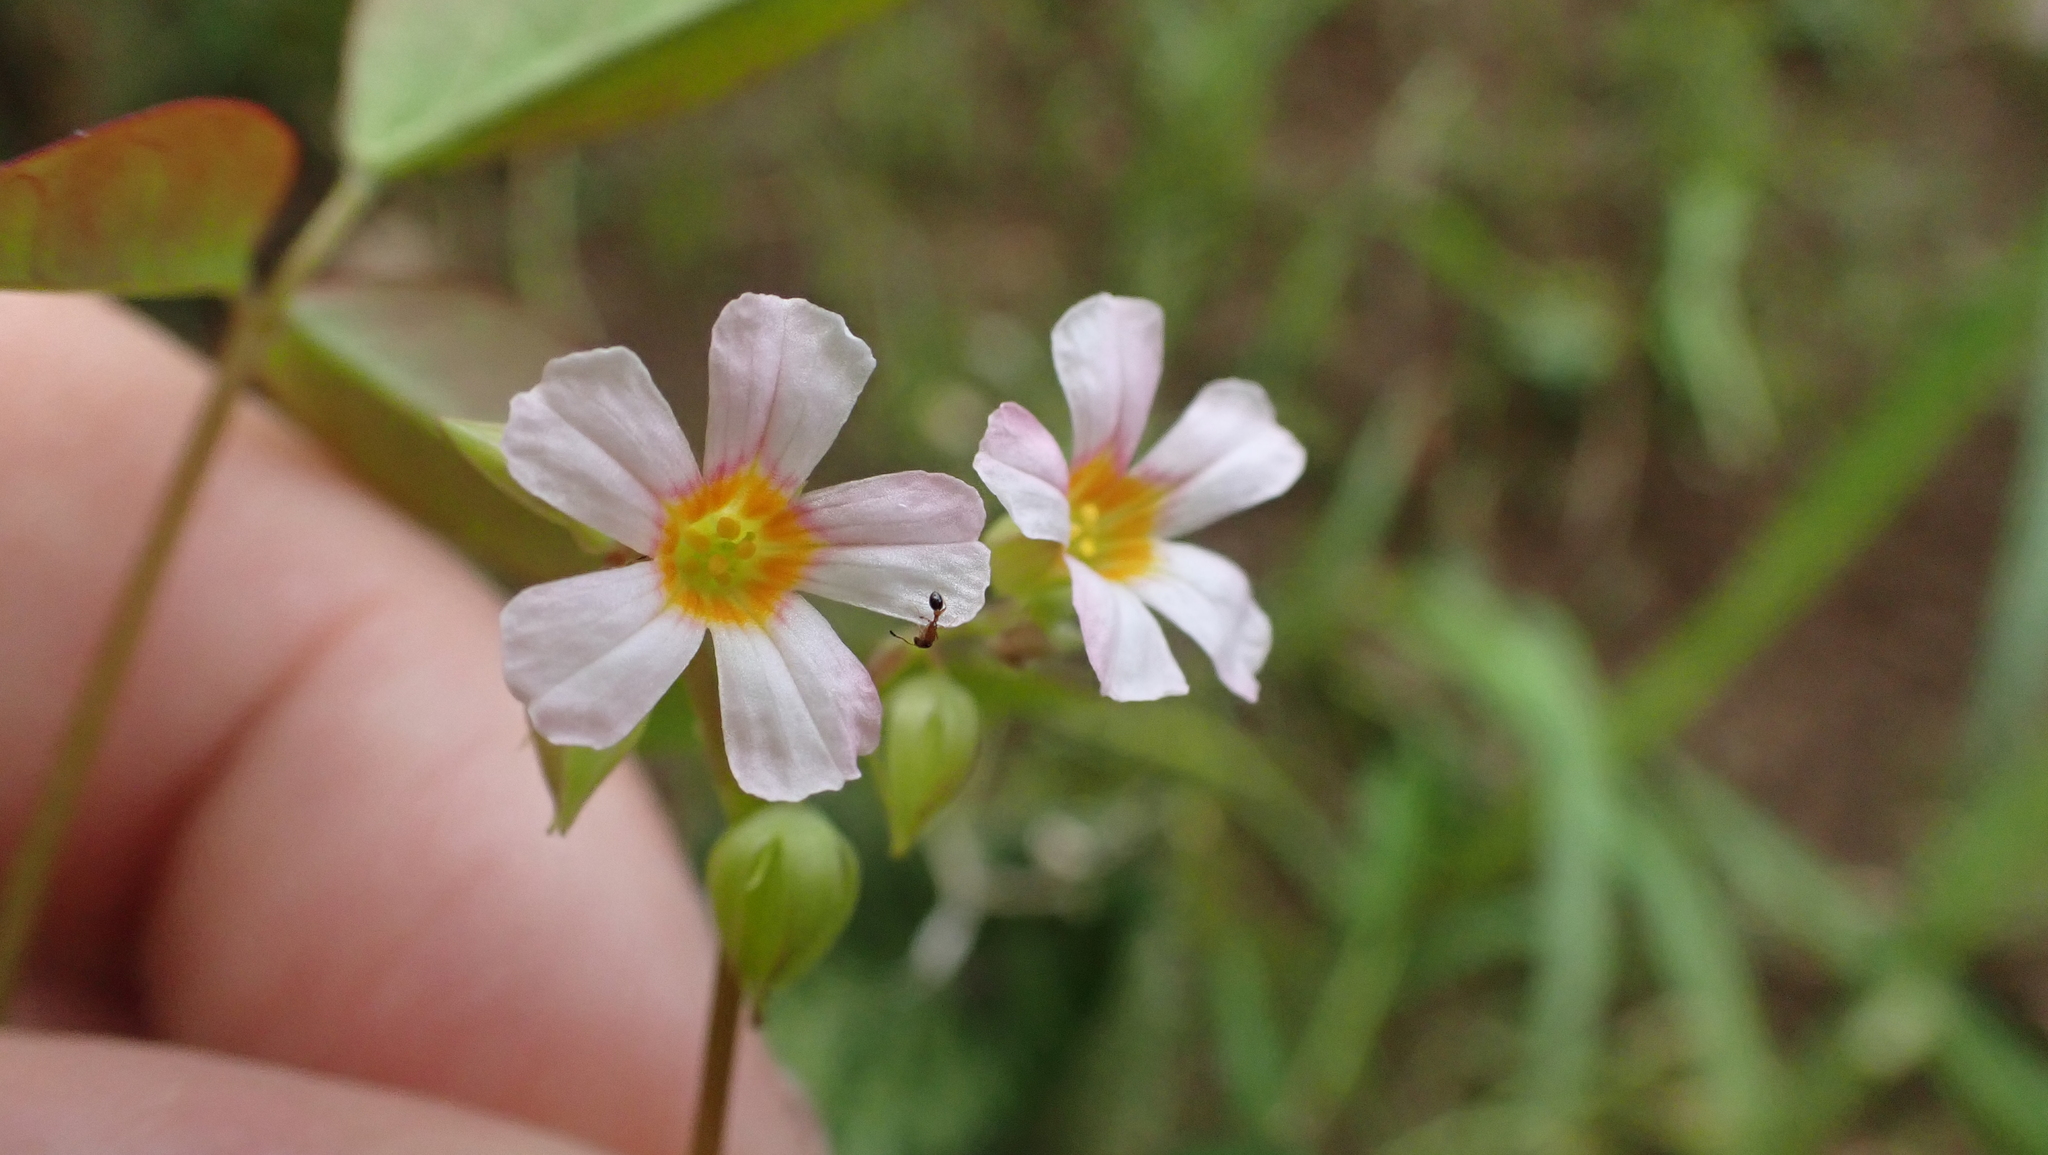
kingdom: Plantae
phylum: Tracheophyta
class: Magnoliopsida
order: Oxalidales
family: Oxalidaceae
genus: Oxalis
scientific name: Oxalis barrelieri
